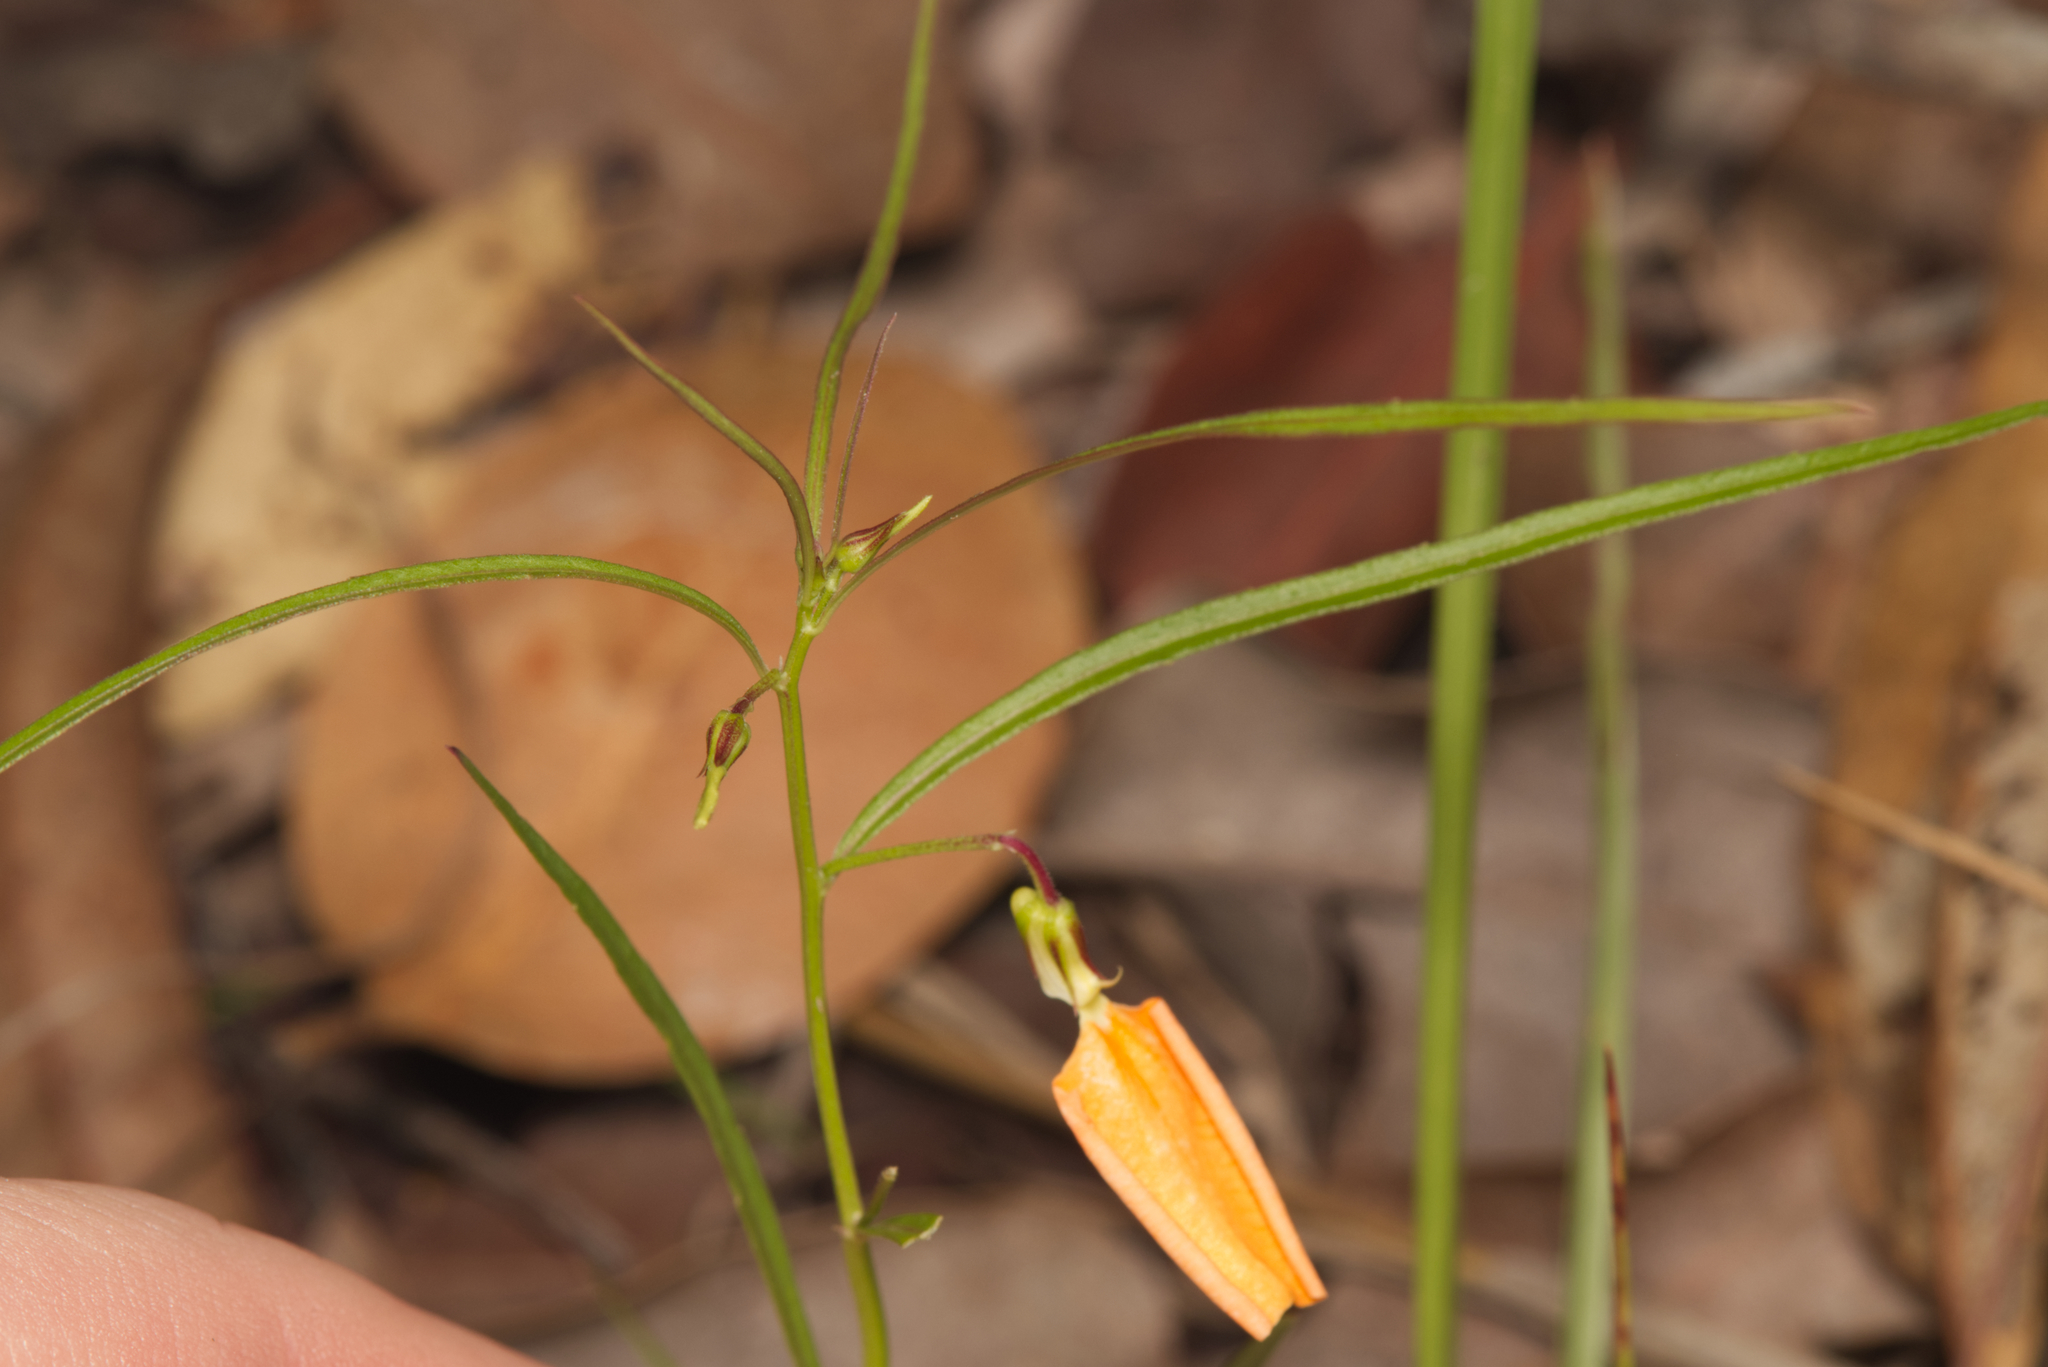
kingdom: Plantae
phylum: Tracheophyta
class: Magnoliopsida
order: Malpighiales
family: Violaceae
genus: Pigea
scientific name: Pigea stellarioides
